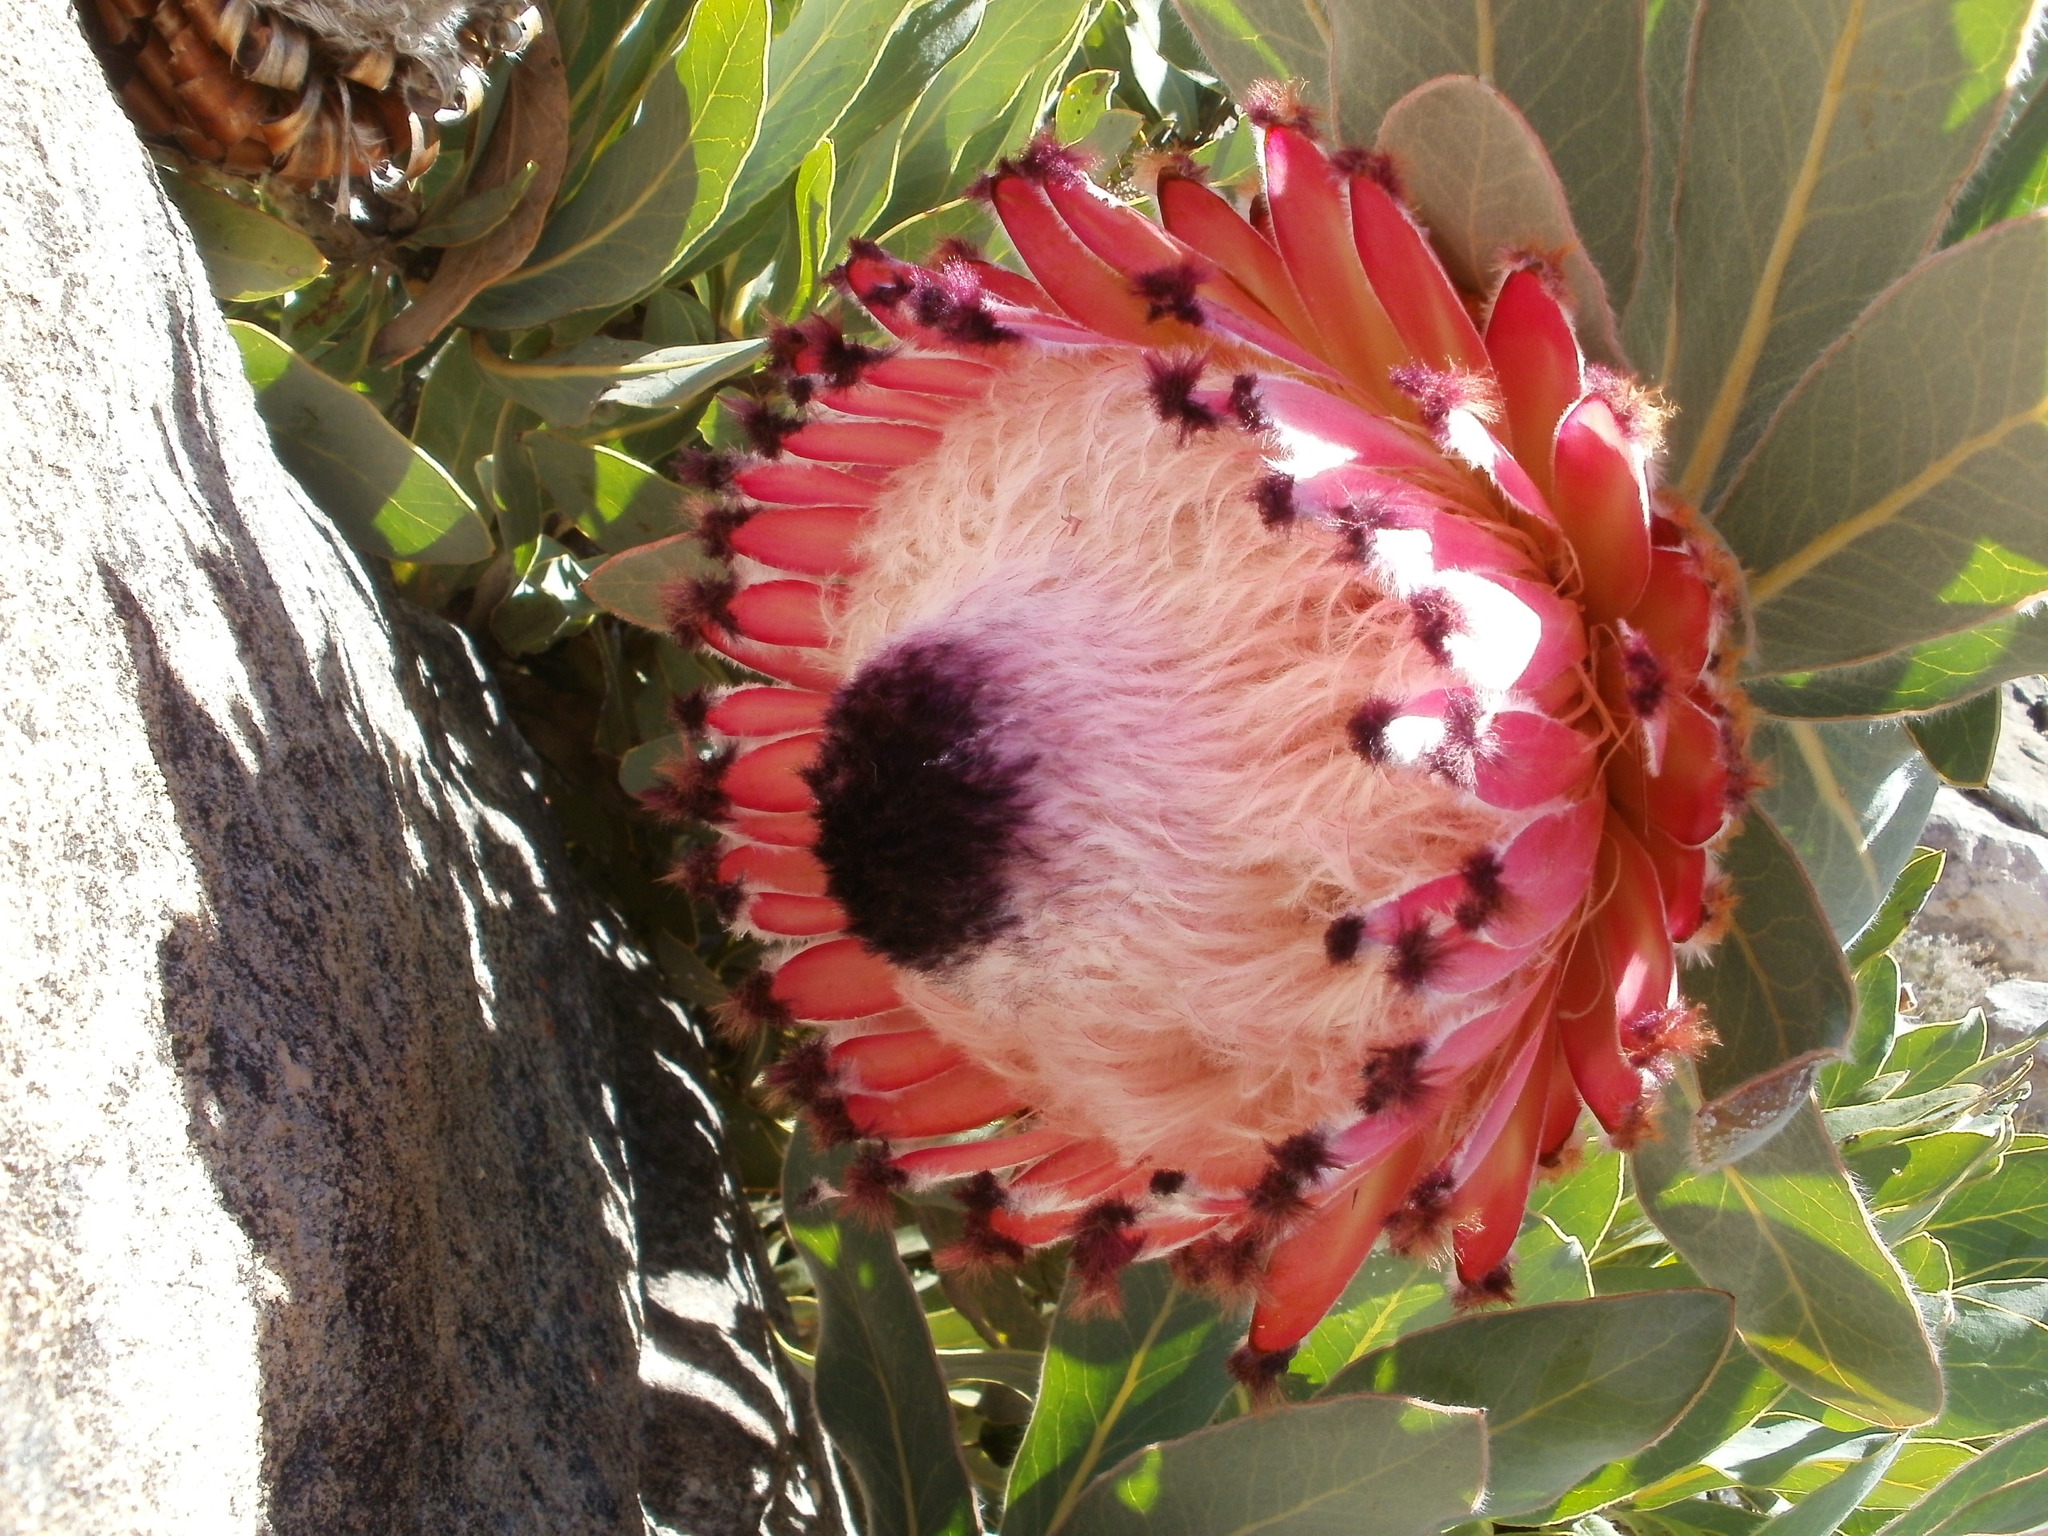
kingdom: Plantae
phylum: Tracheophyta
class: Magnoliopsida
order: Proteales
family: Proteaceae
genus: Protea
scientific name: Protea magnifica
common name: Bearded sugarbush
